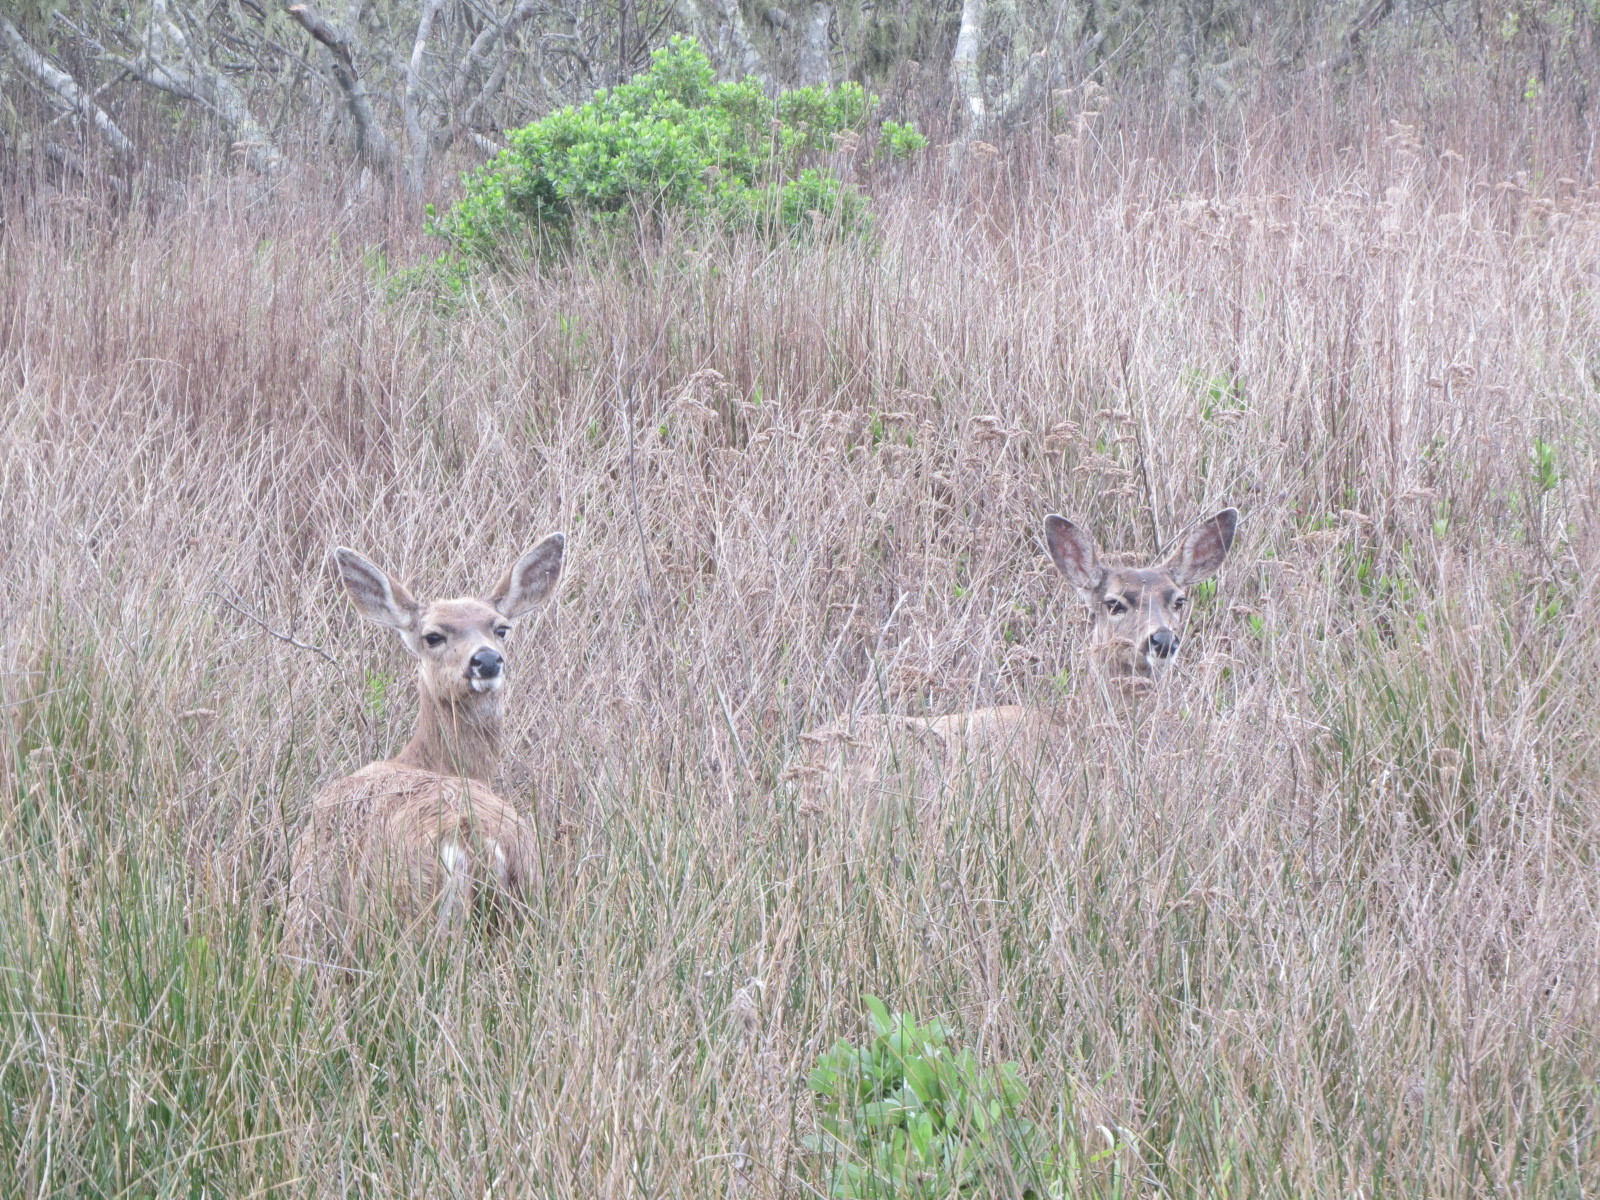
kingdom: Animalia
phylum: Chordata
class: Mammalia
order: Artiodactyla
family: Cervidae
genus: Odocoileus
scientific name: Odocoileus hemionus
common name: Mule deer
